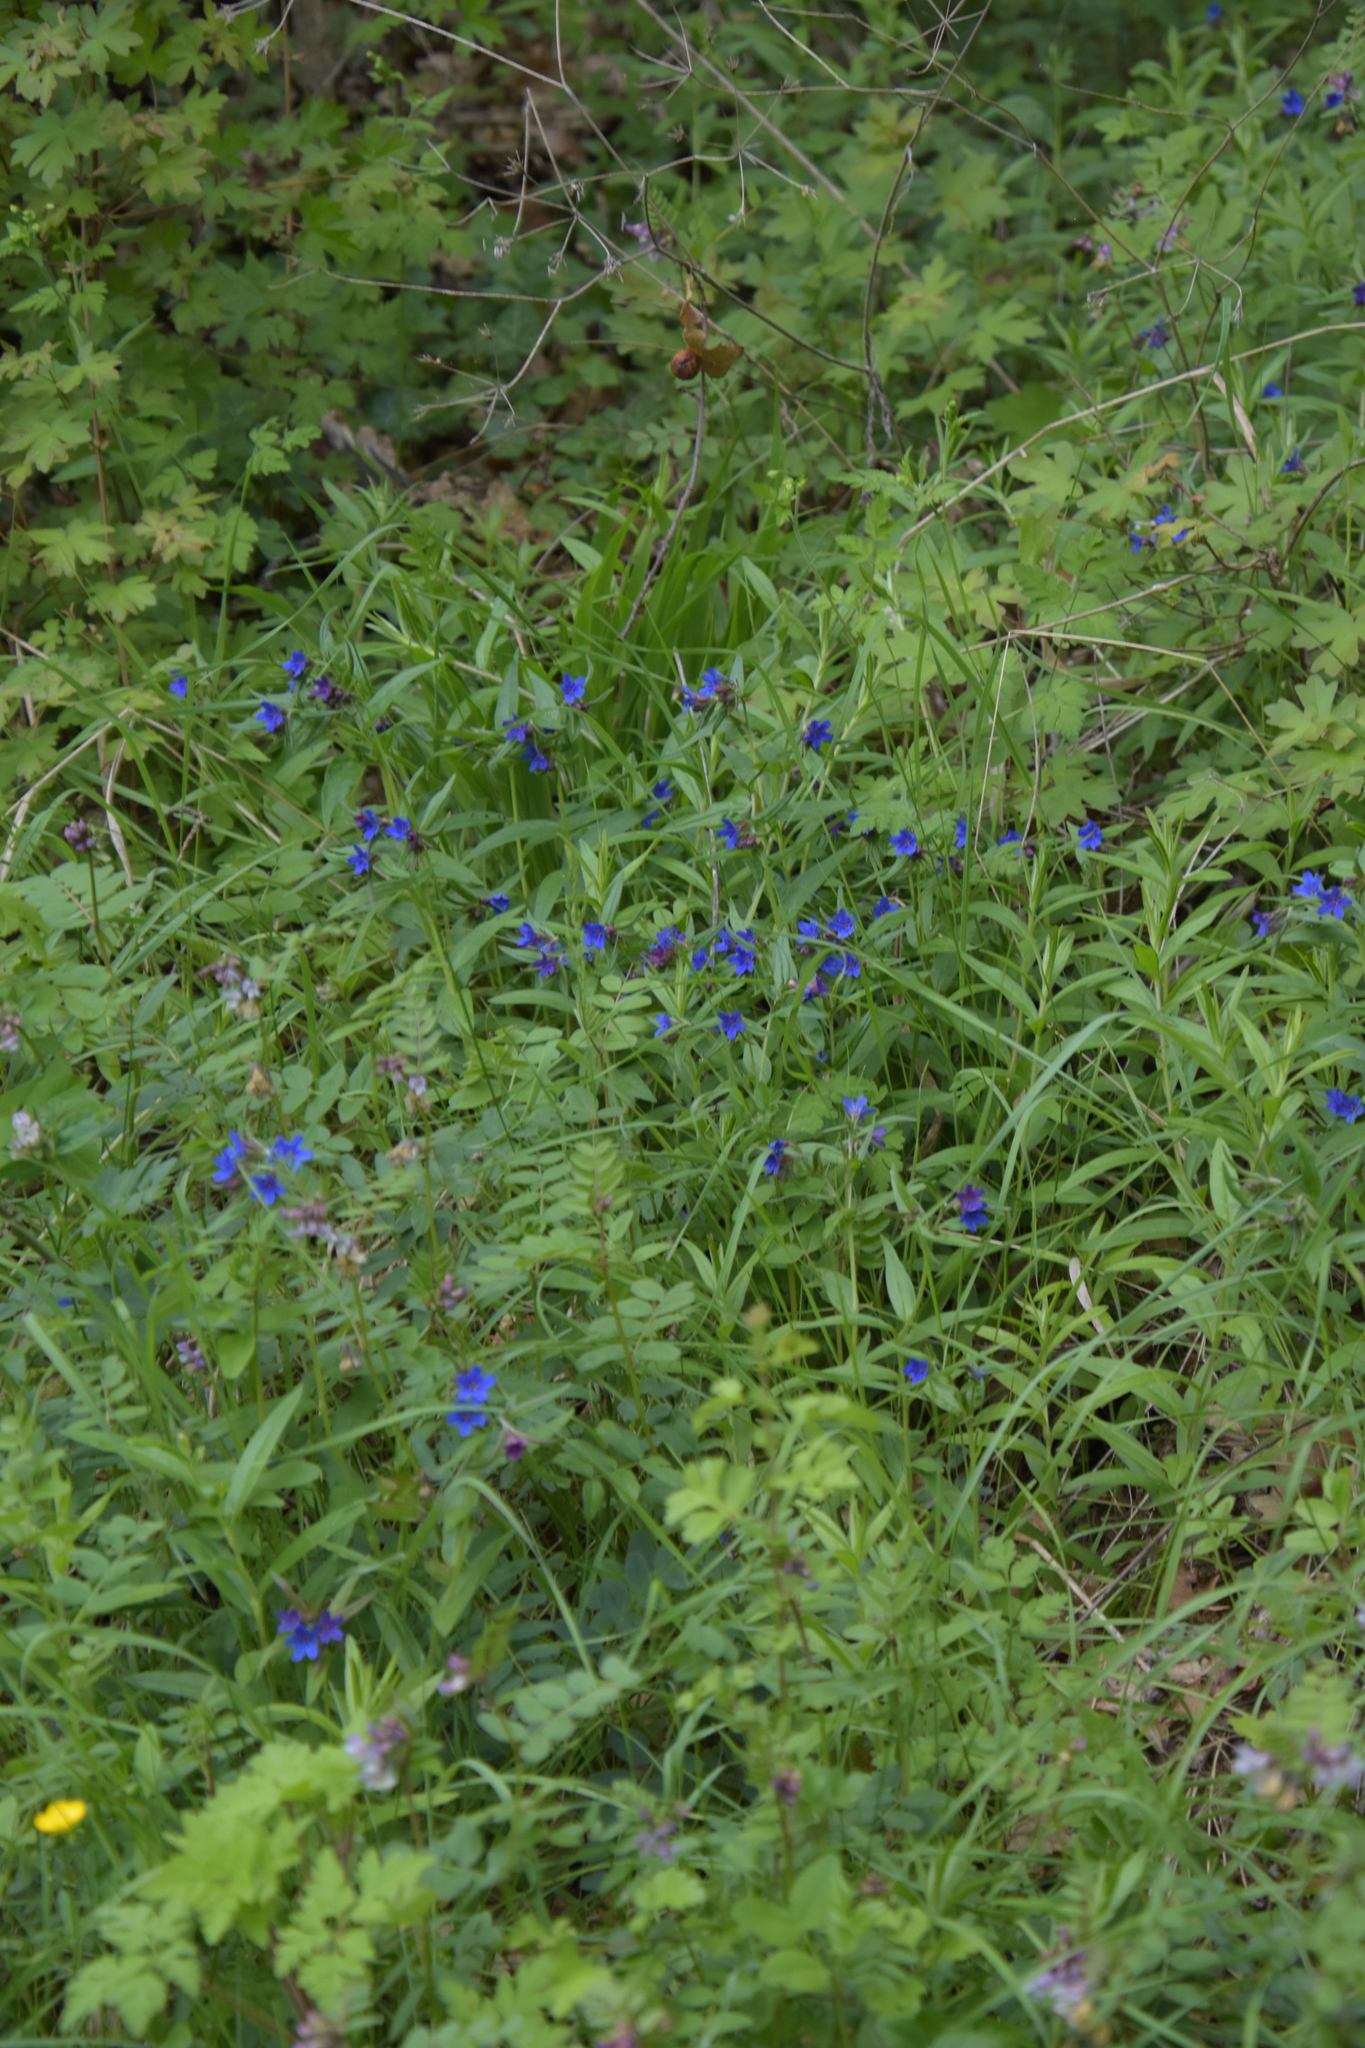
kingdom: Plantae
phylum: Tracheophyta
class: Magnoliopsida
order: Boraginales
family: Boraginaceae
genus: Aegonychon
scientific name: Aegonychon purpurocaeruleum
